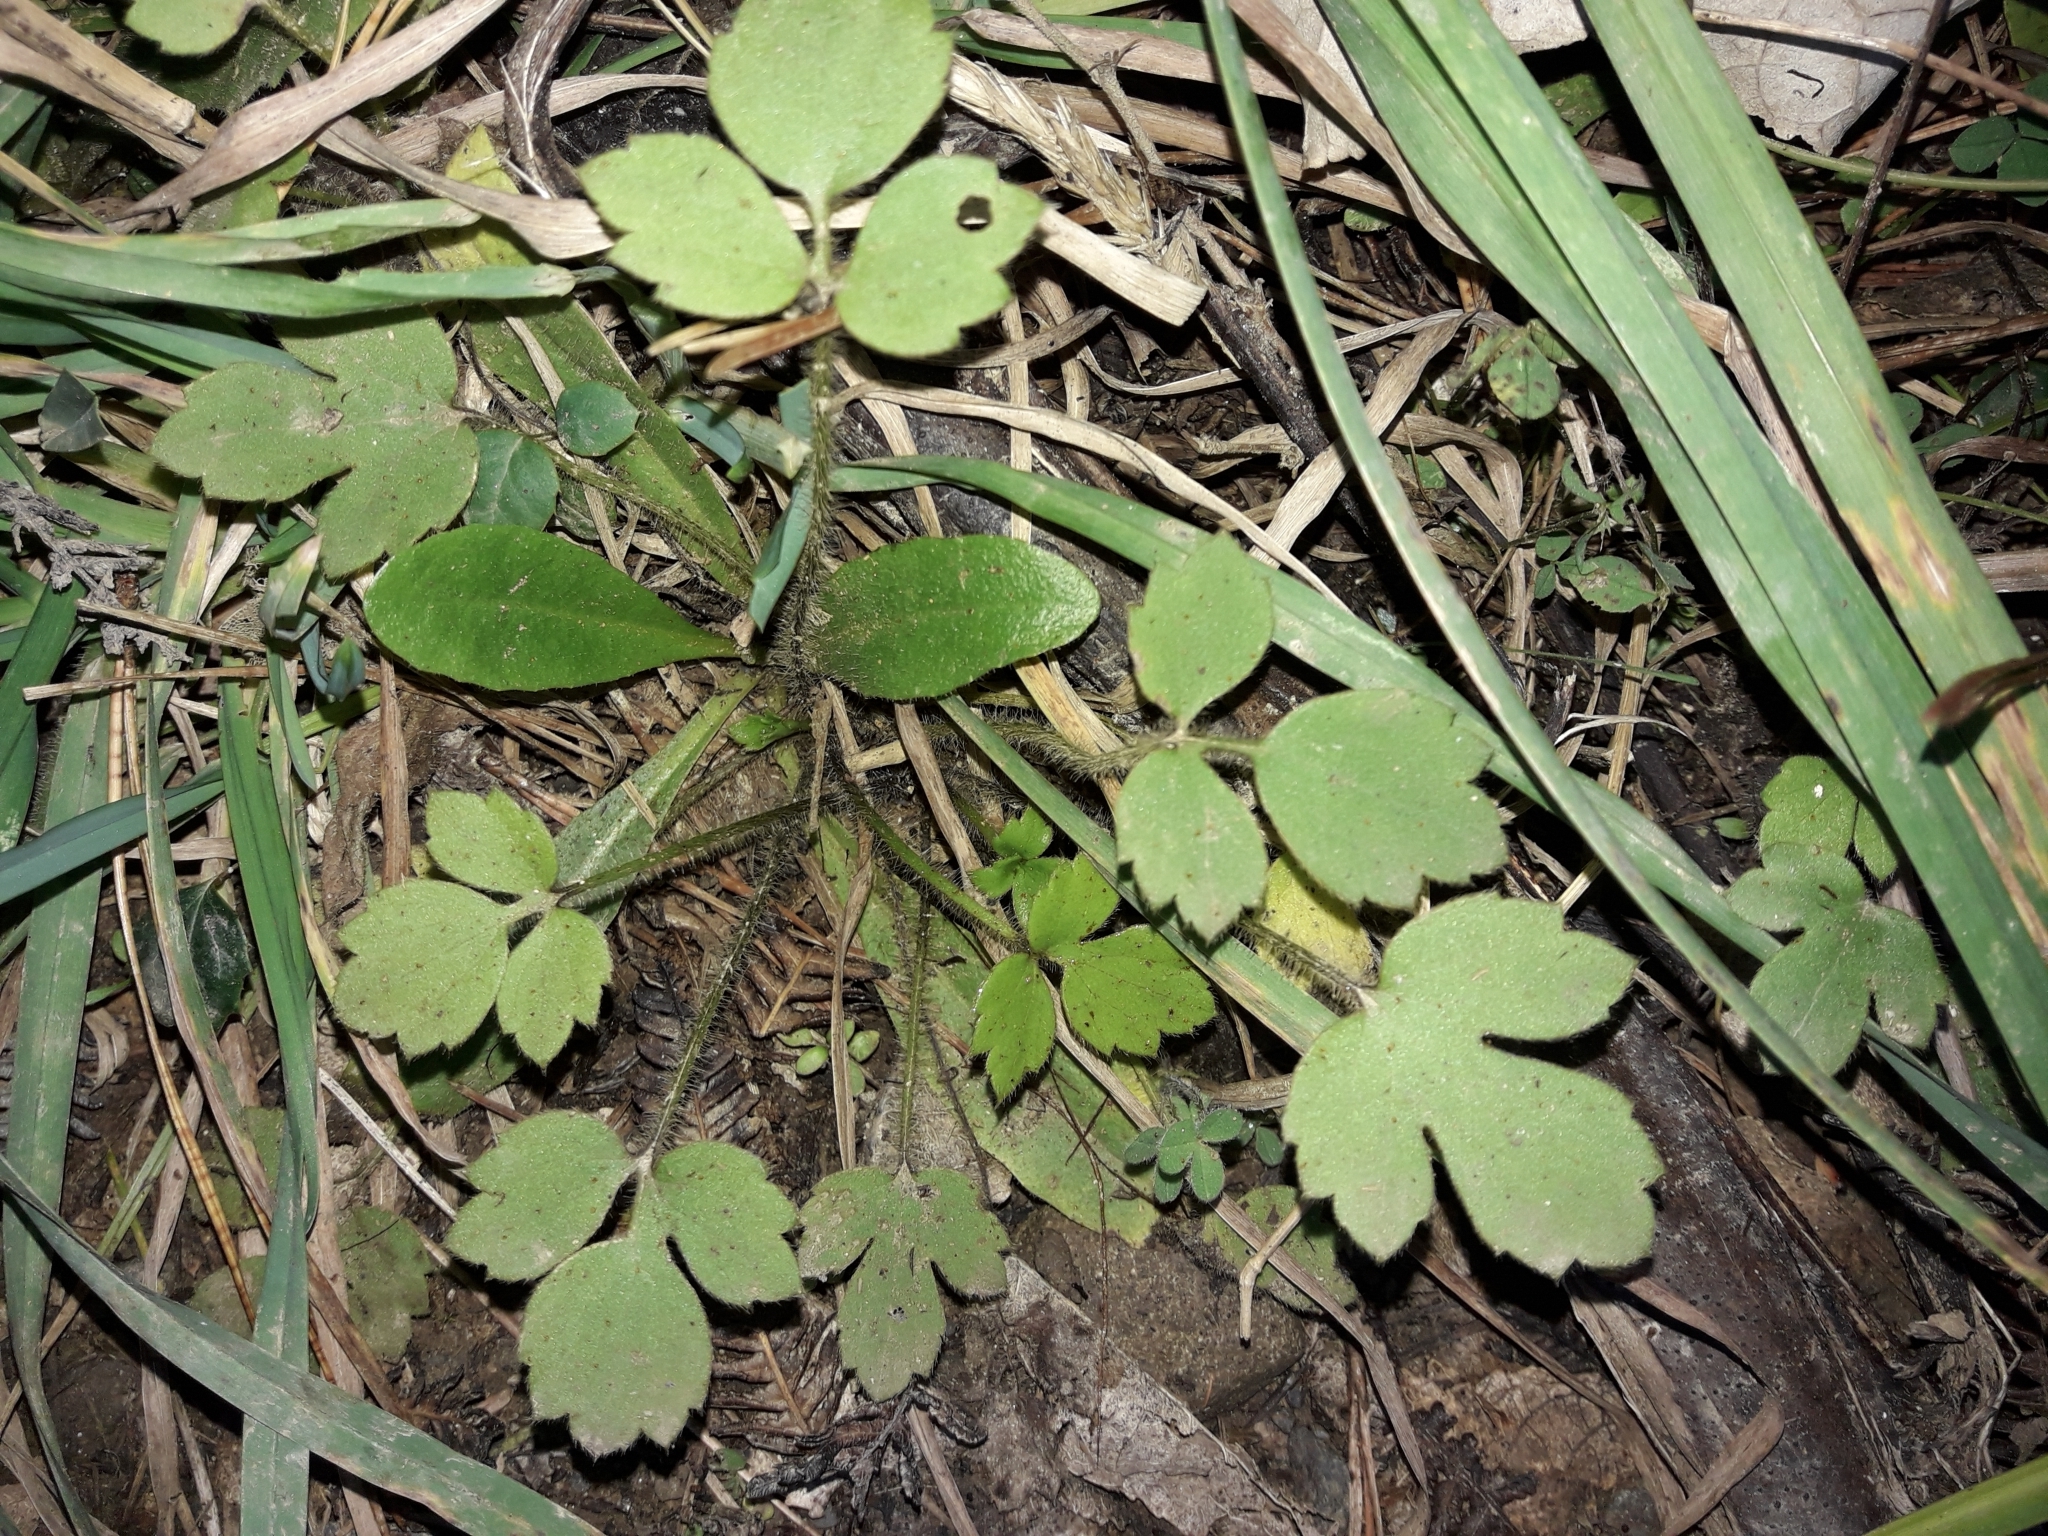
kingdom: Plantae
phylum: Tracheophyta
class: Magnoliopsida
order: Ranunculales
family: Ranunculaceae
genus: Ranunculus
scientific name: Ranunculus reflexus
